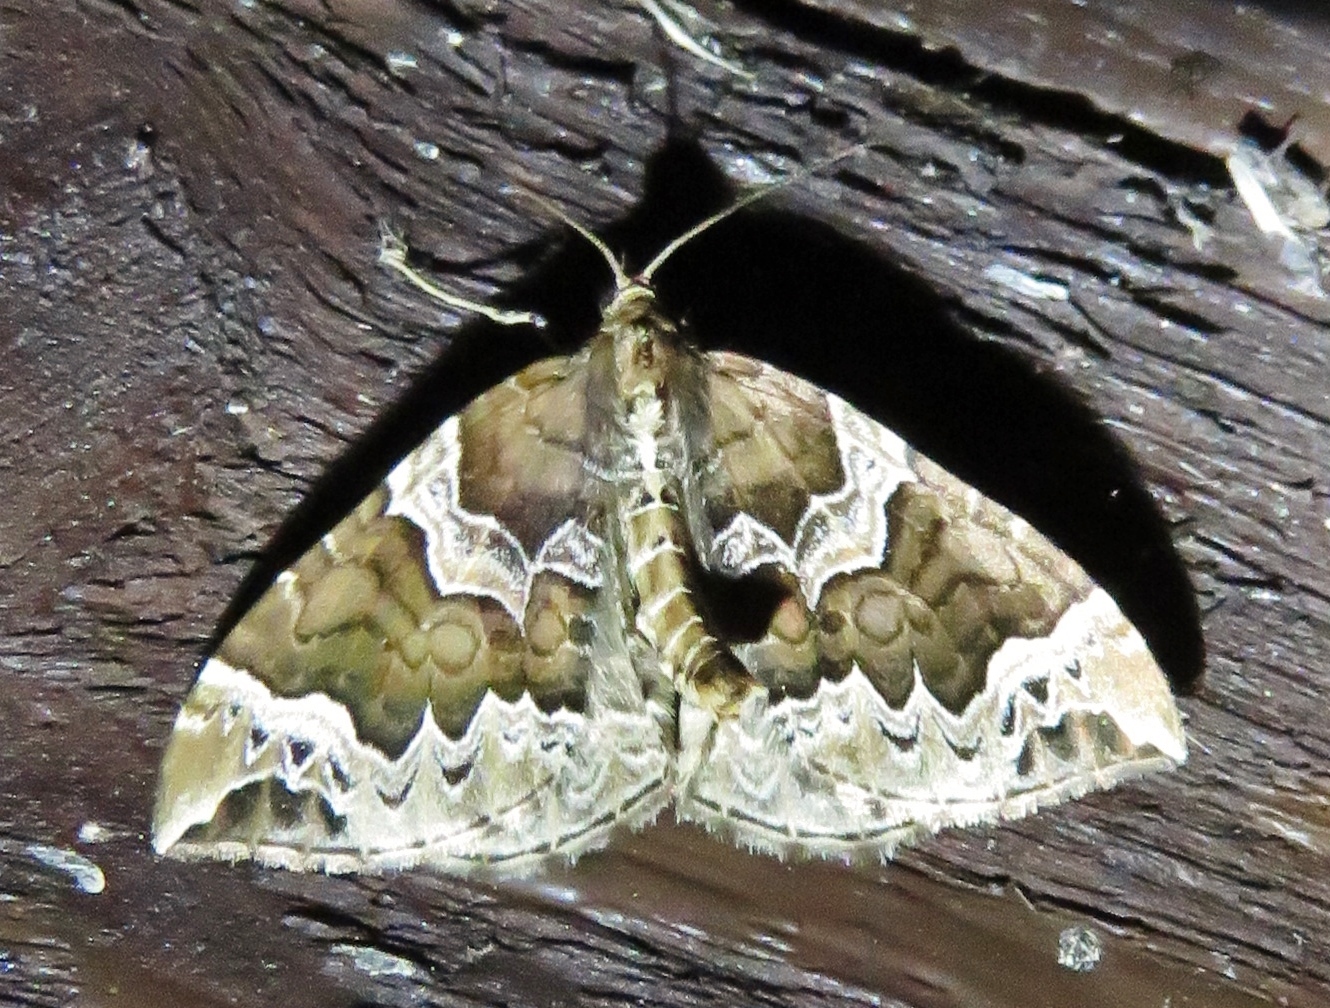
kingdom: Animalia
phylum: Arthropoda
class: Insecta
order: Lepidoptera
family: Geometridae
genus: Eulithis
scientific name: Eulithis prunata
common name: Phoenix
